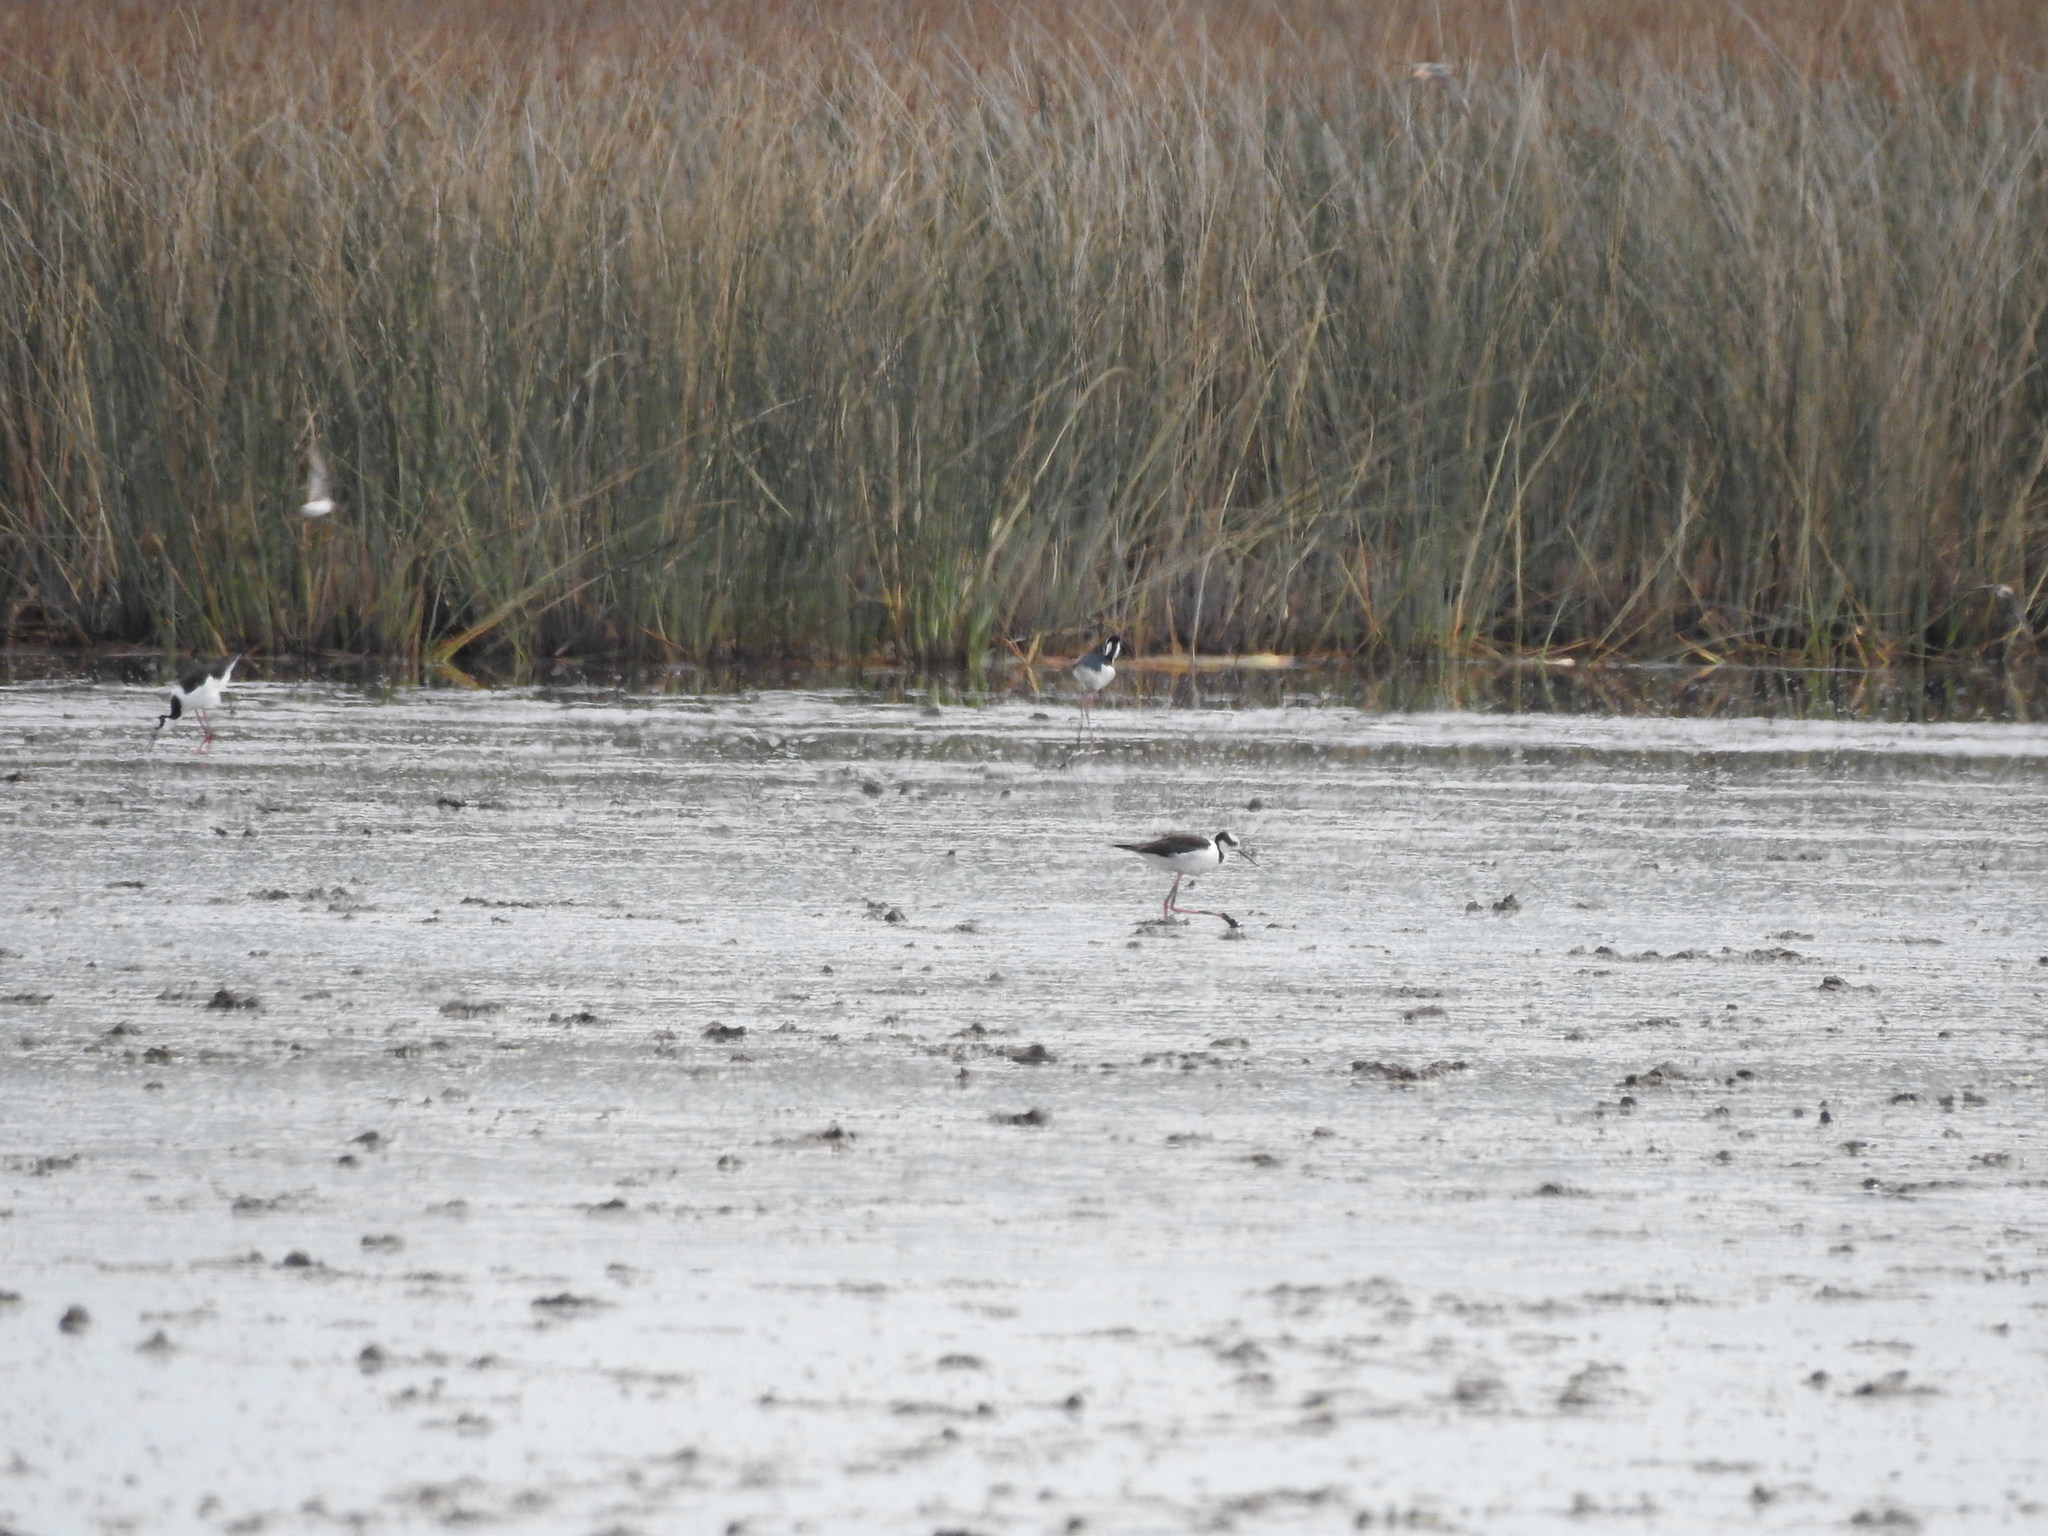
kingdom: Animalia
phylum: Chordata
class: Aves
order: Charadriiformes
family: Recurvirostridae
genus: Himantopus
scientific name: Himantopus mexicanus
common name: Black-necked stilt
